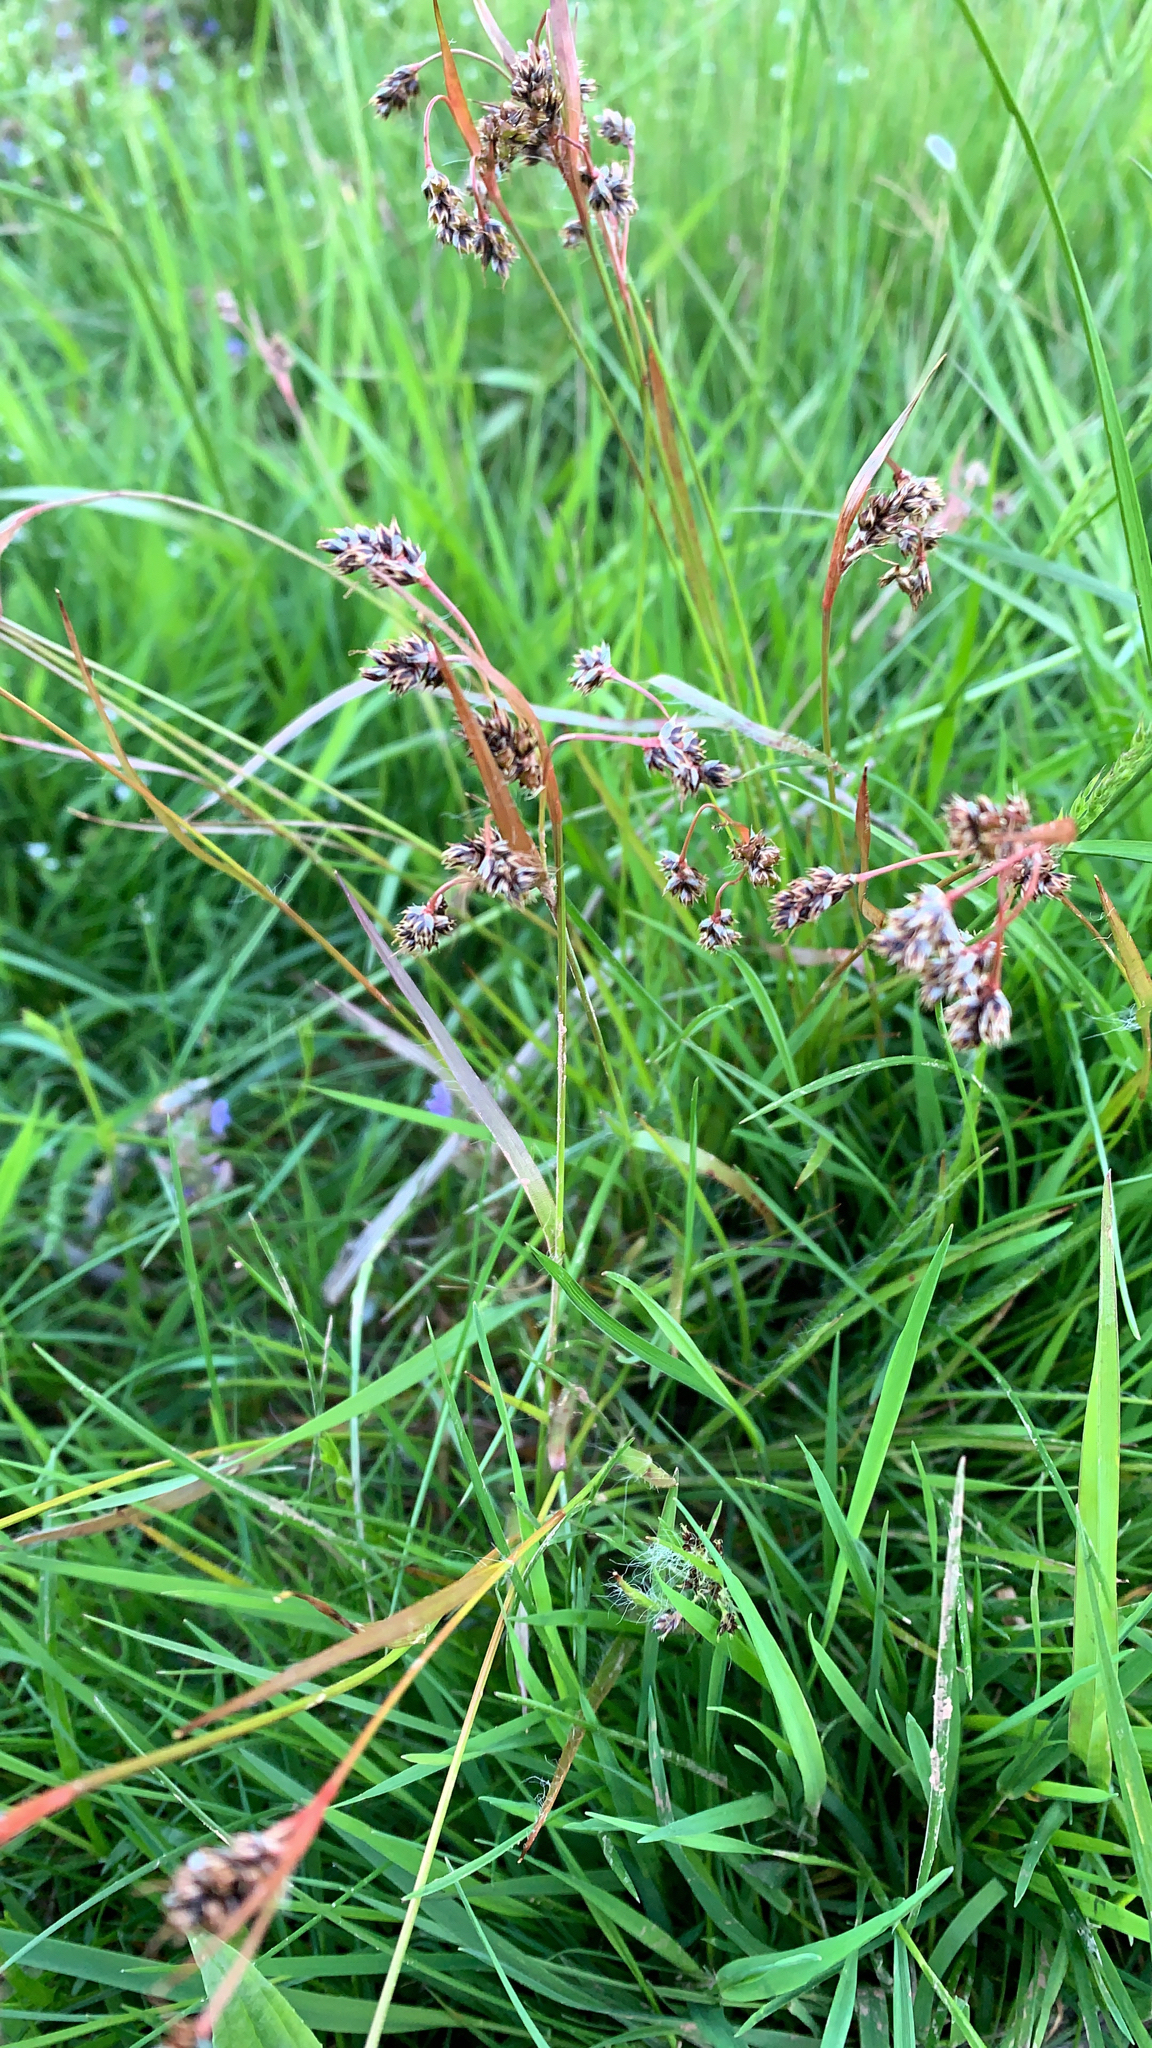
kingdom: Plantae
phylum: Tracheophyta
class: Liliopsida
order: Poales
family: Juncaceae
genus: Luzula
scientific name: Luzula campestris
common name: Field wood-rush
